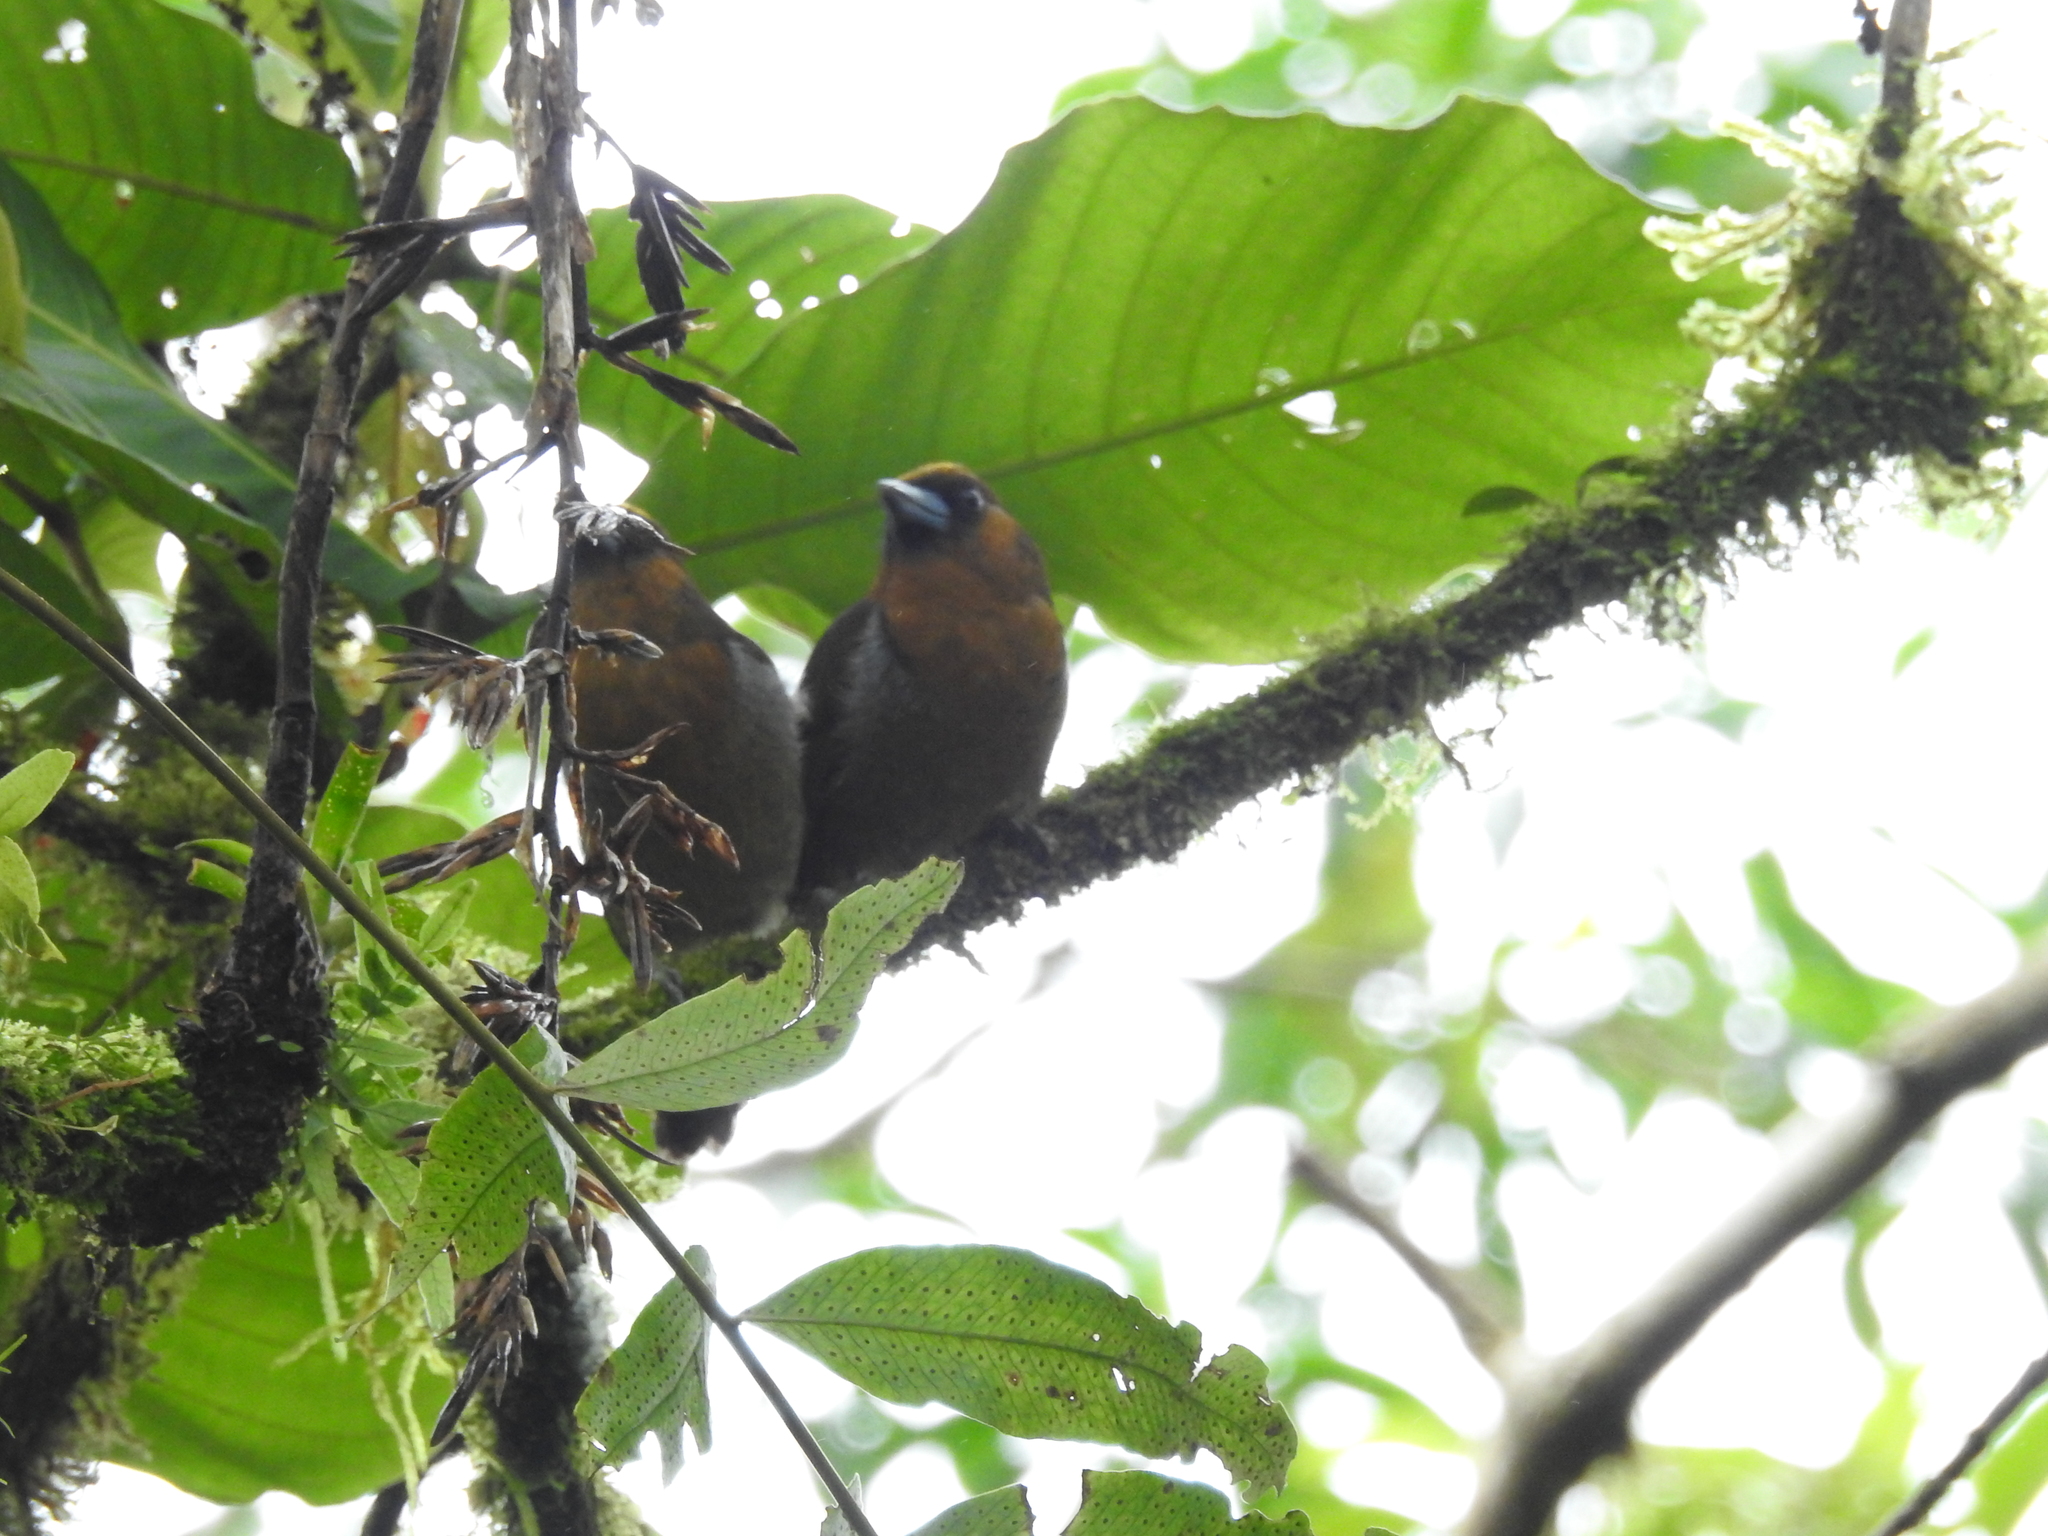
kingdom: Animalia
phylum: Chordata
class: Aves
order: Piciformes
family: Semnornithidae
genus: Semnornis
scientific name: Semnornis frantzii
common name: Prong-billed barbet
